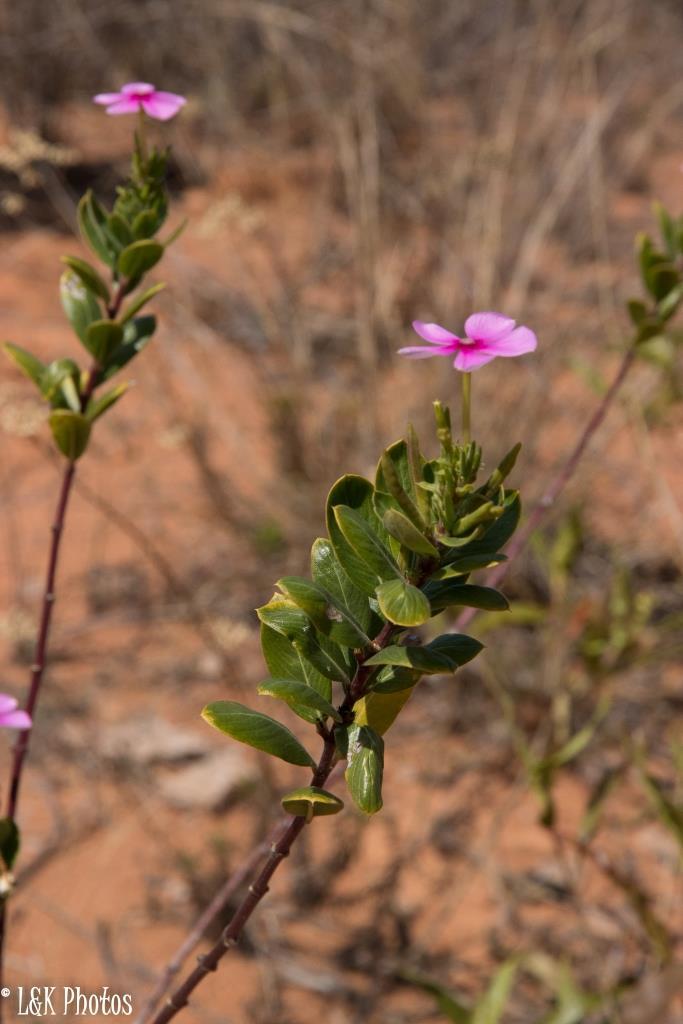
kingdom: Plantae
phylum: Tracheophyta
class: Magnoliopsida
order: Gentianales
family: Apocynaceae
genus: Catharanthus
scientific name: Catharanthus roseus
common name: Madagascar periwinkle
